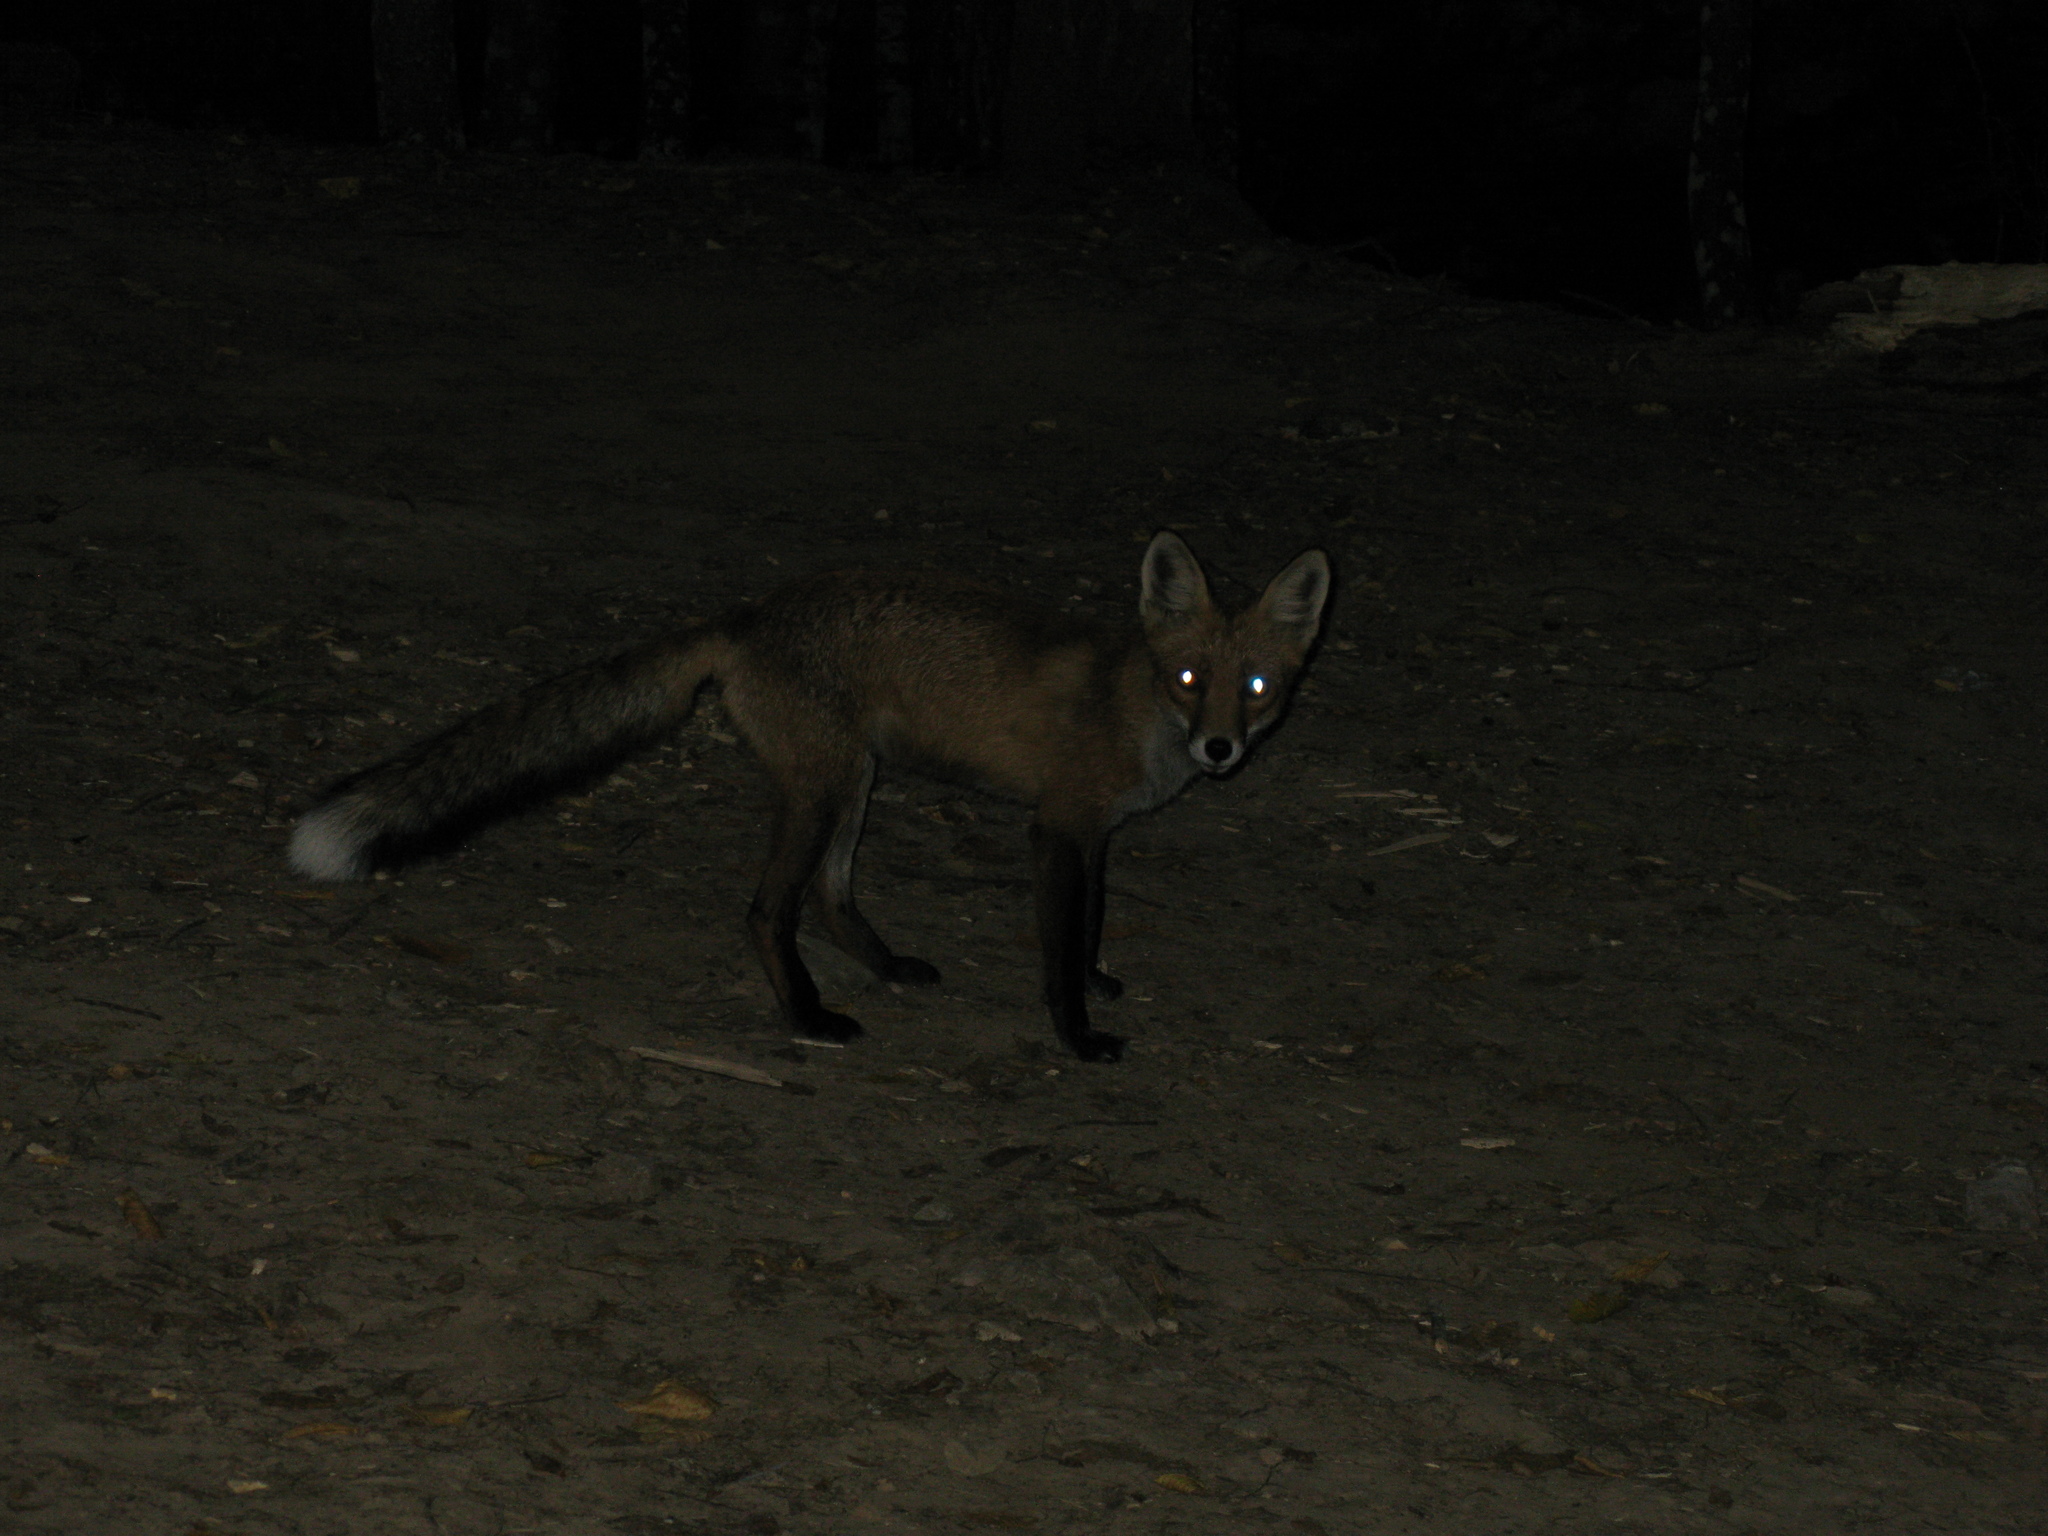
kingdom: Animalia
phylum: Chordata
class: Mammalia
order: Carnivora
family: Canidae
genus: Vulpes
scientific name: Vulpes vulpes
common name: Red fox
